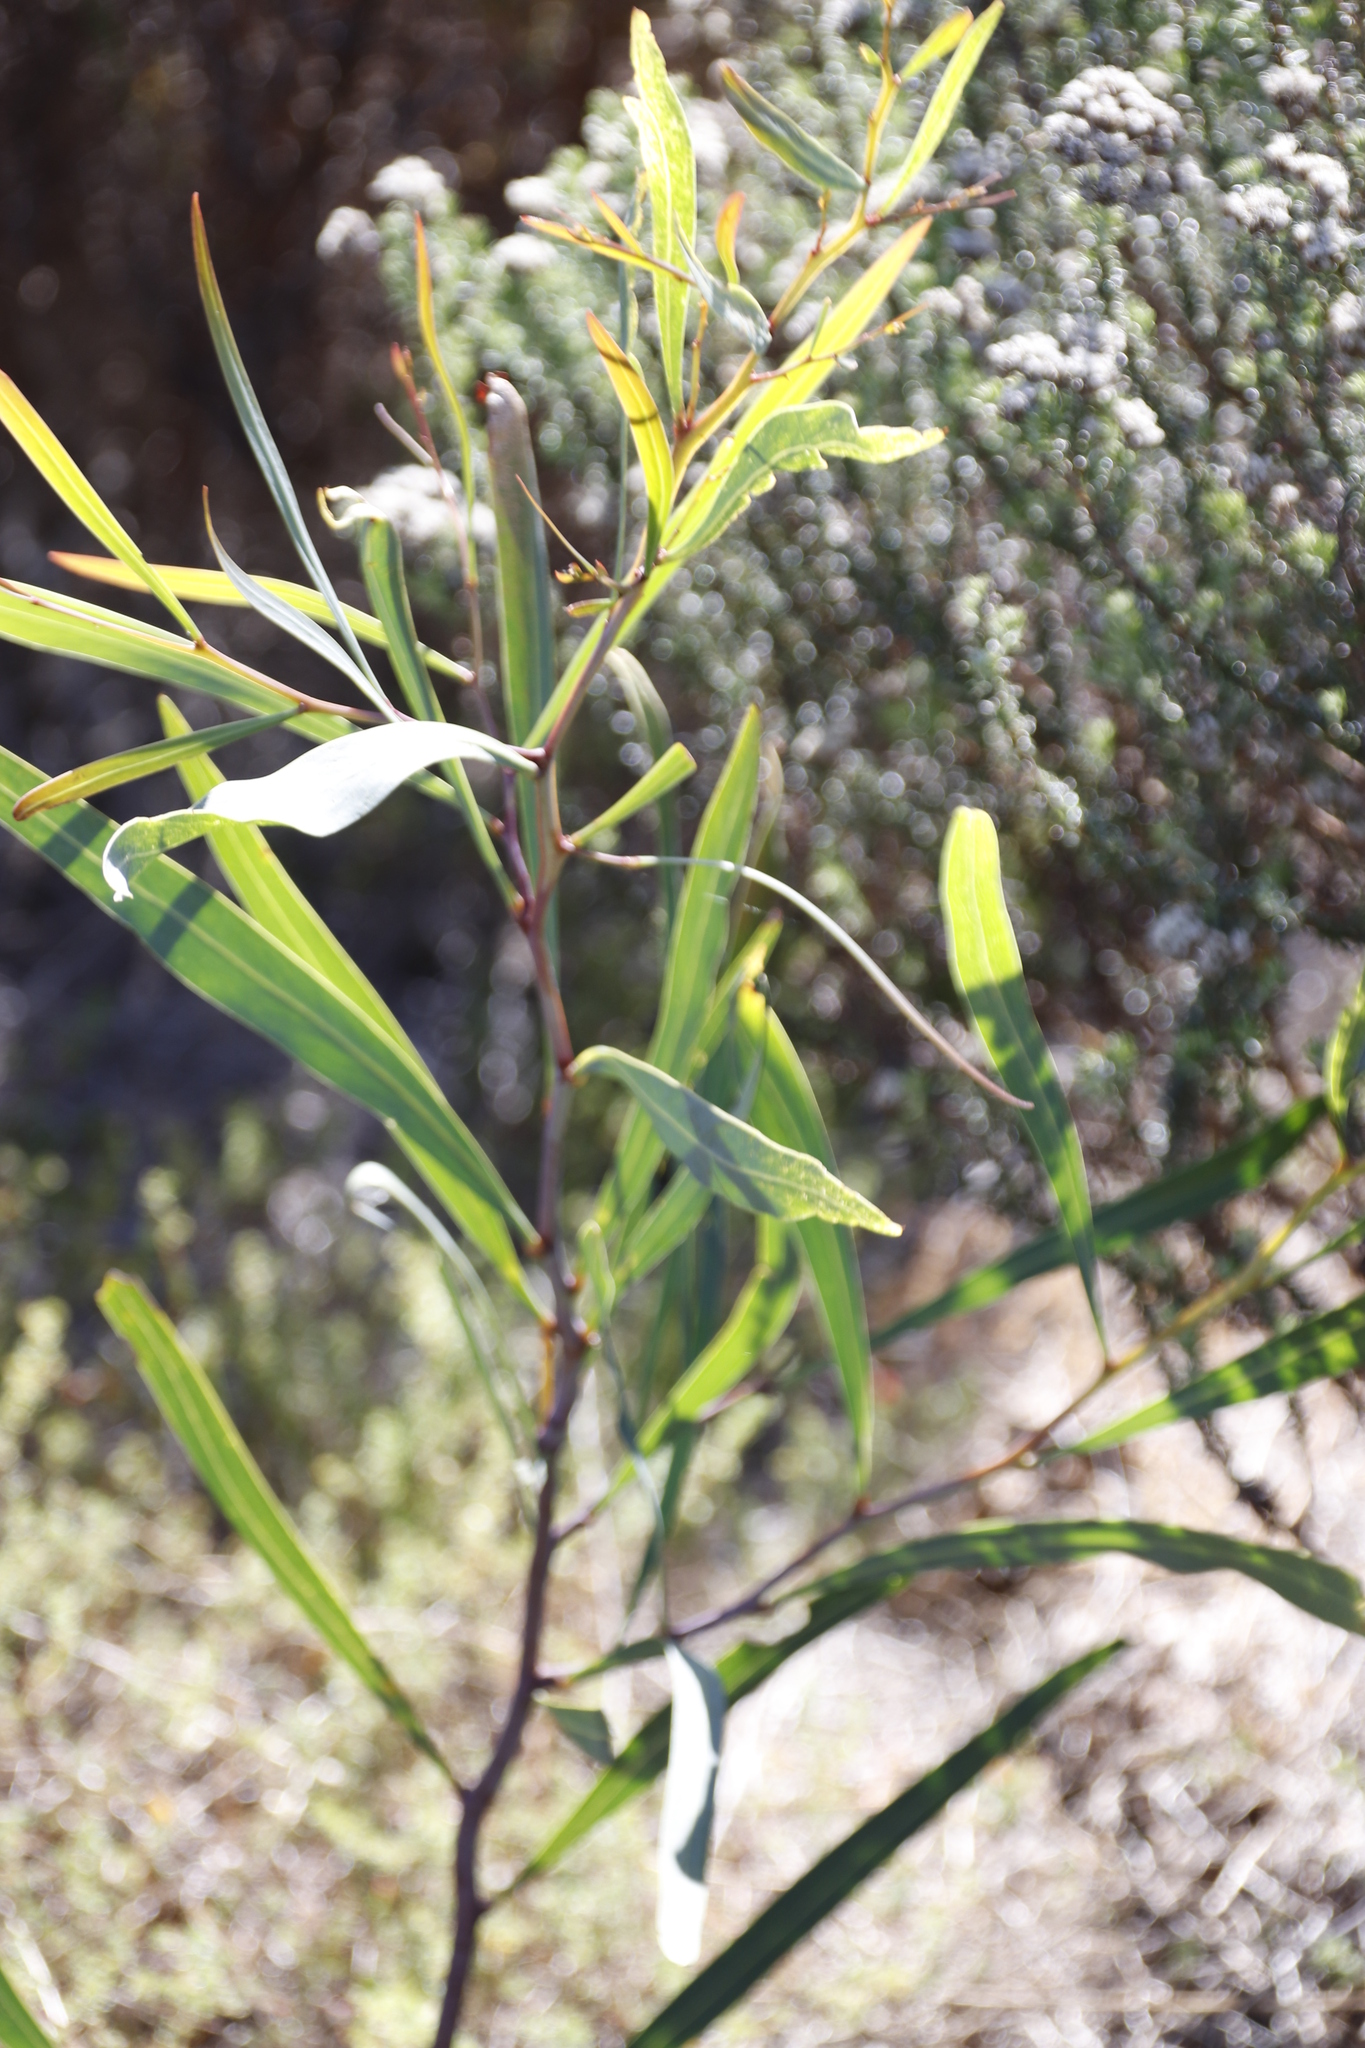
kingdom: Plantae
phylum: Tracheophyta
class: Magnoliopsida
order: Fabales
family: Fabaceae
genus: Acacia
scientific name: Acacia saligna
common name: Orange wattle
